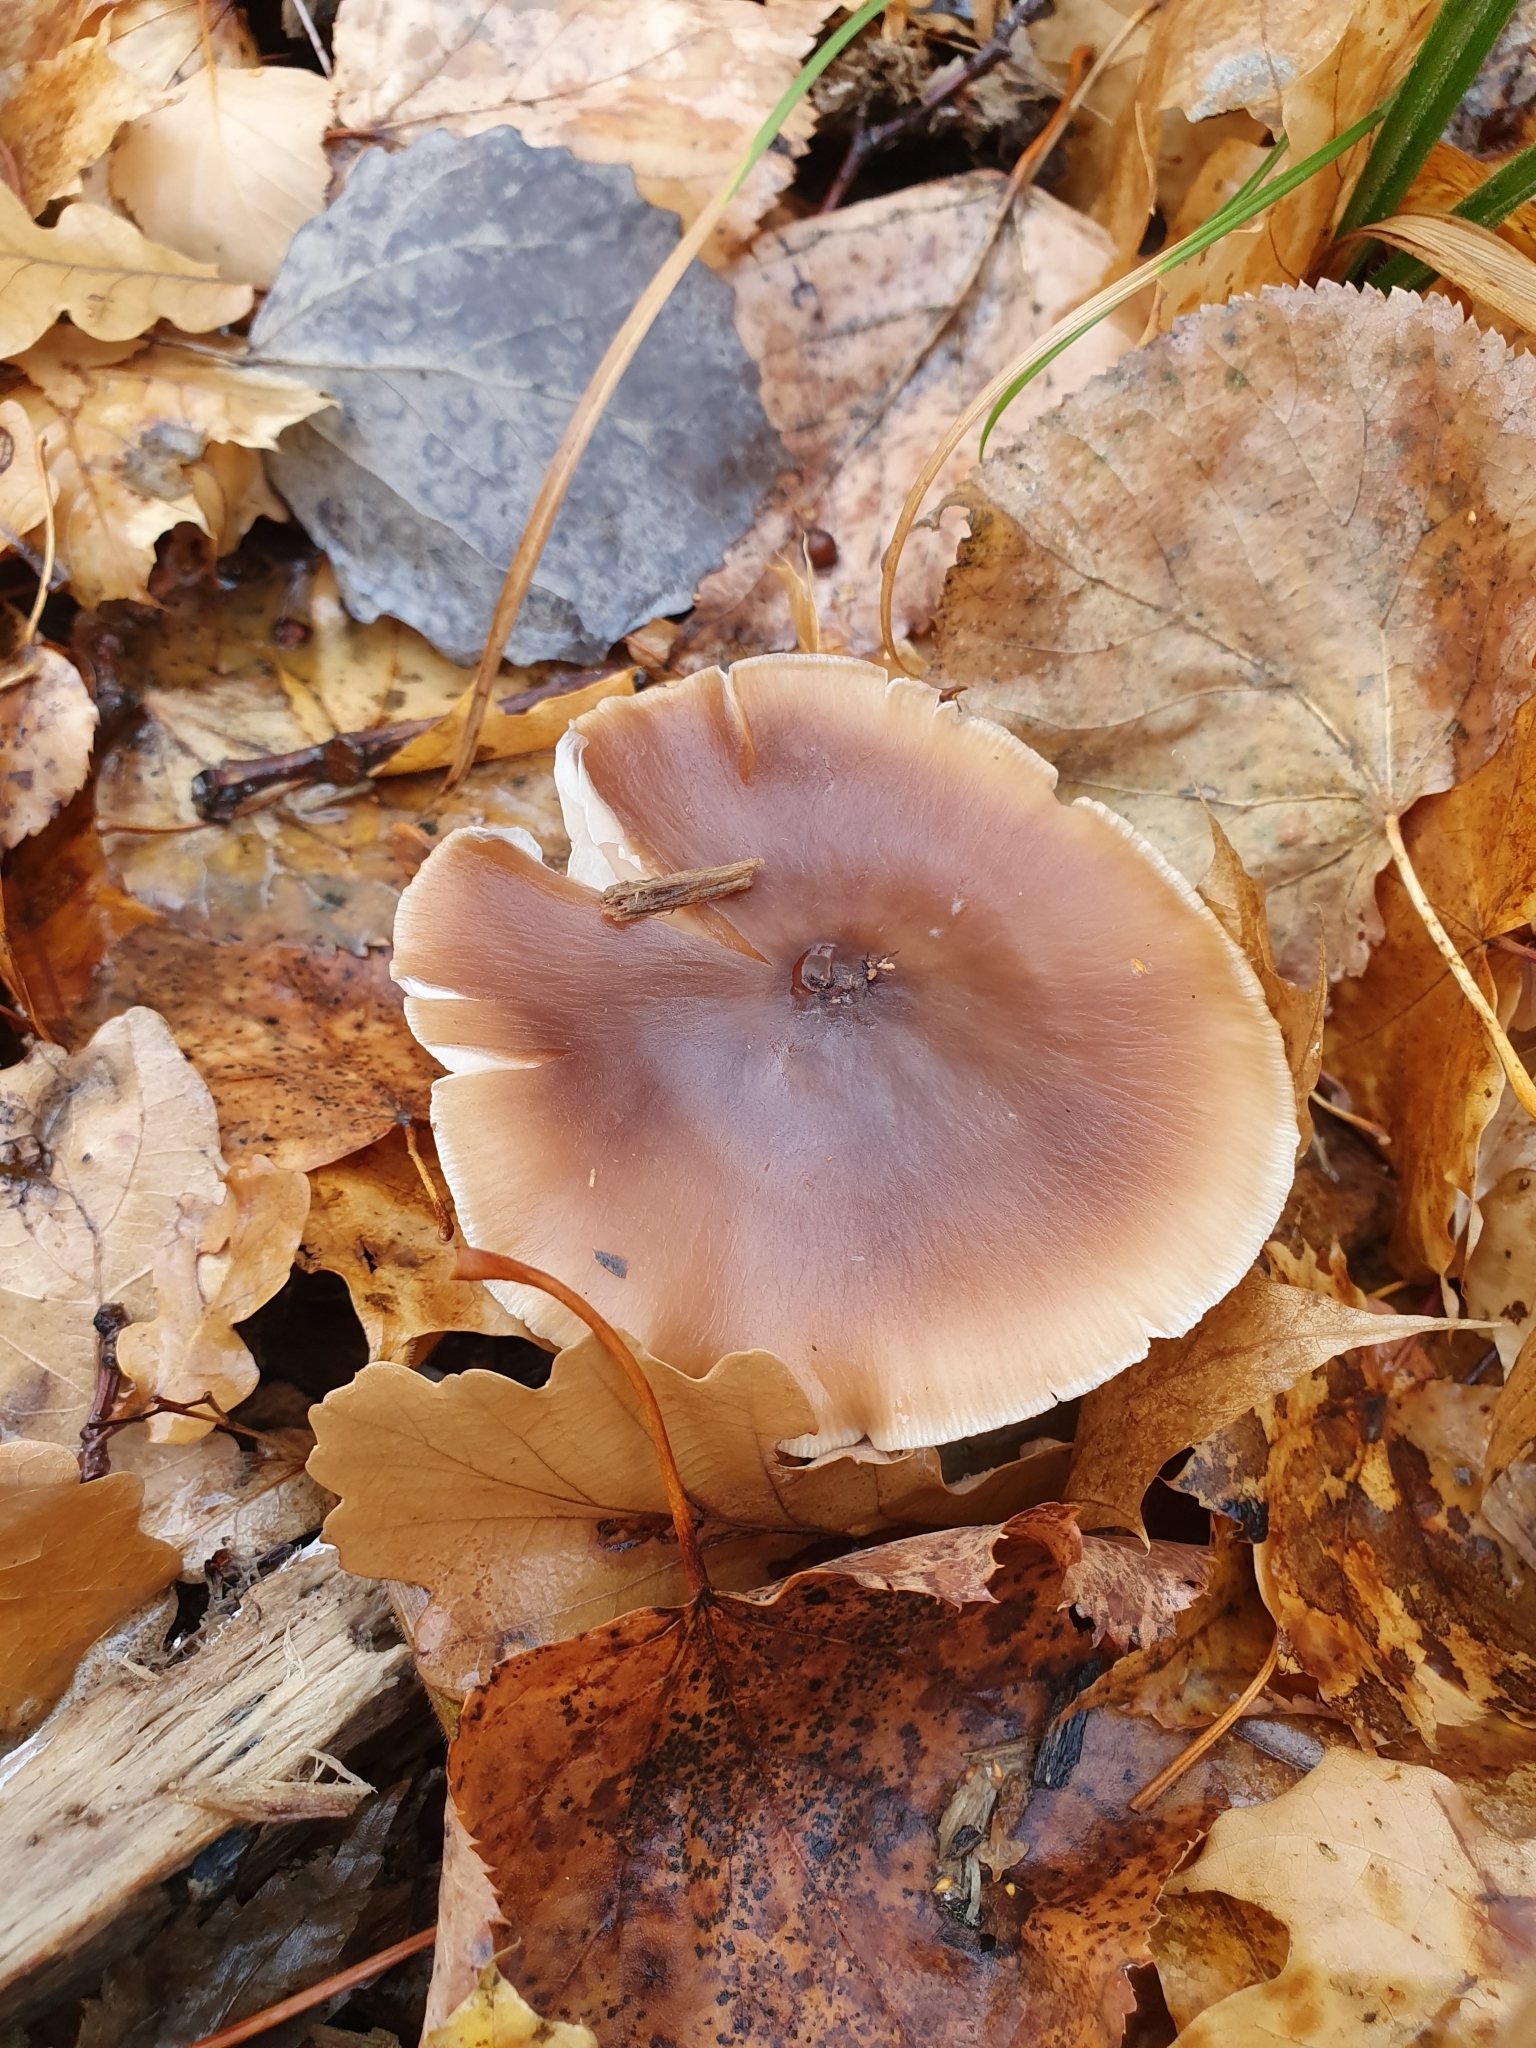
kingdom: Fungi
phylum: Basidiomycota
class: Agaricomycetes
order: Agaricales
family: Omphalotaceae
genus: Rhodocollybia
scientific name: Rhodocollybia butyracea
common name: Butter cap
